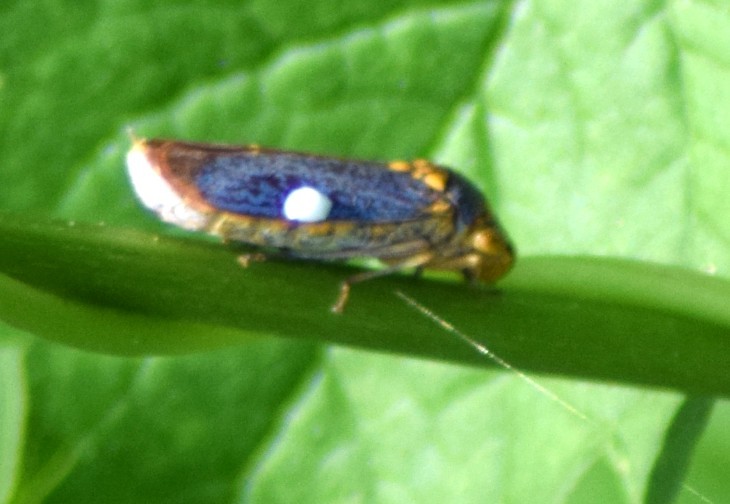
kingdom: Animalia
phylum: Arthropoda
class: Insecta
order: Hemiptera
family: Cicadellidae
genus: Oncometopia
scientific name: Oncometopia orbona
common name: Broad-headed sharpshooter
